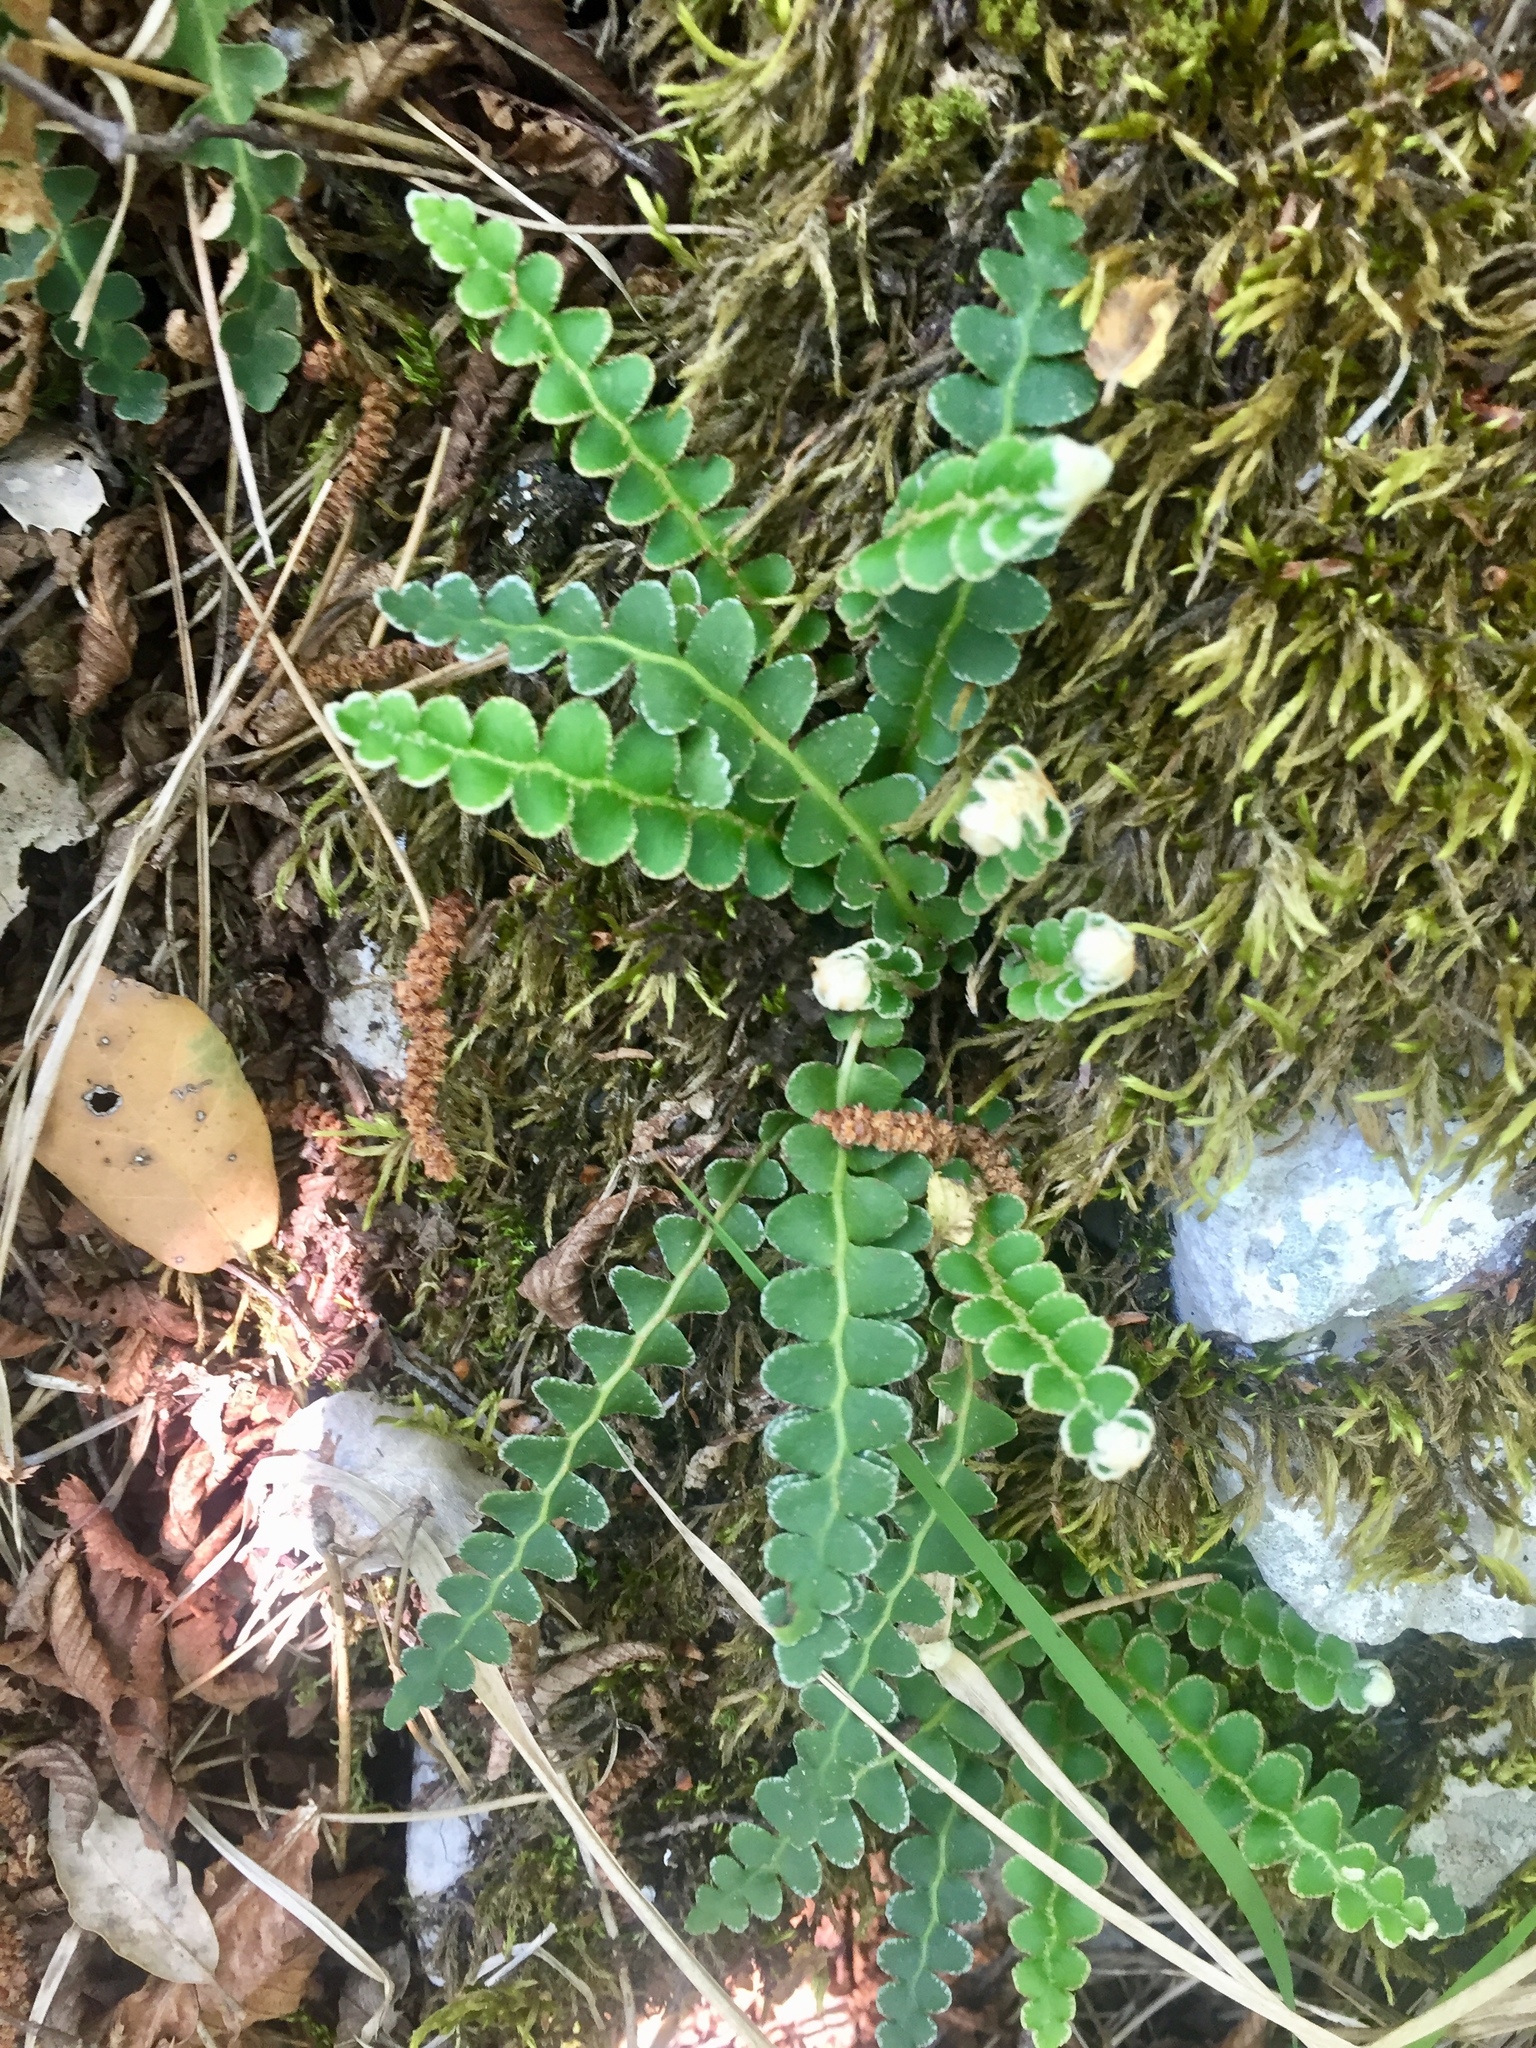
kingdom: Plantae
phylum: Tracheophyta
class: Polypodiopsida
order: Polypodiales
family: Aspleniaceae
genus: Asplenium
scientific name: Asplenium ceterach
